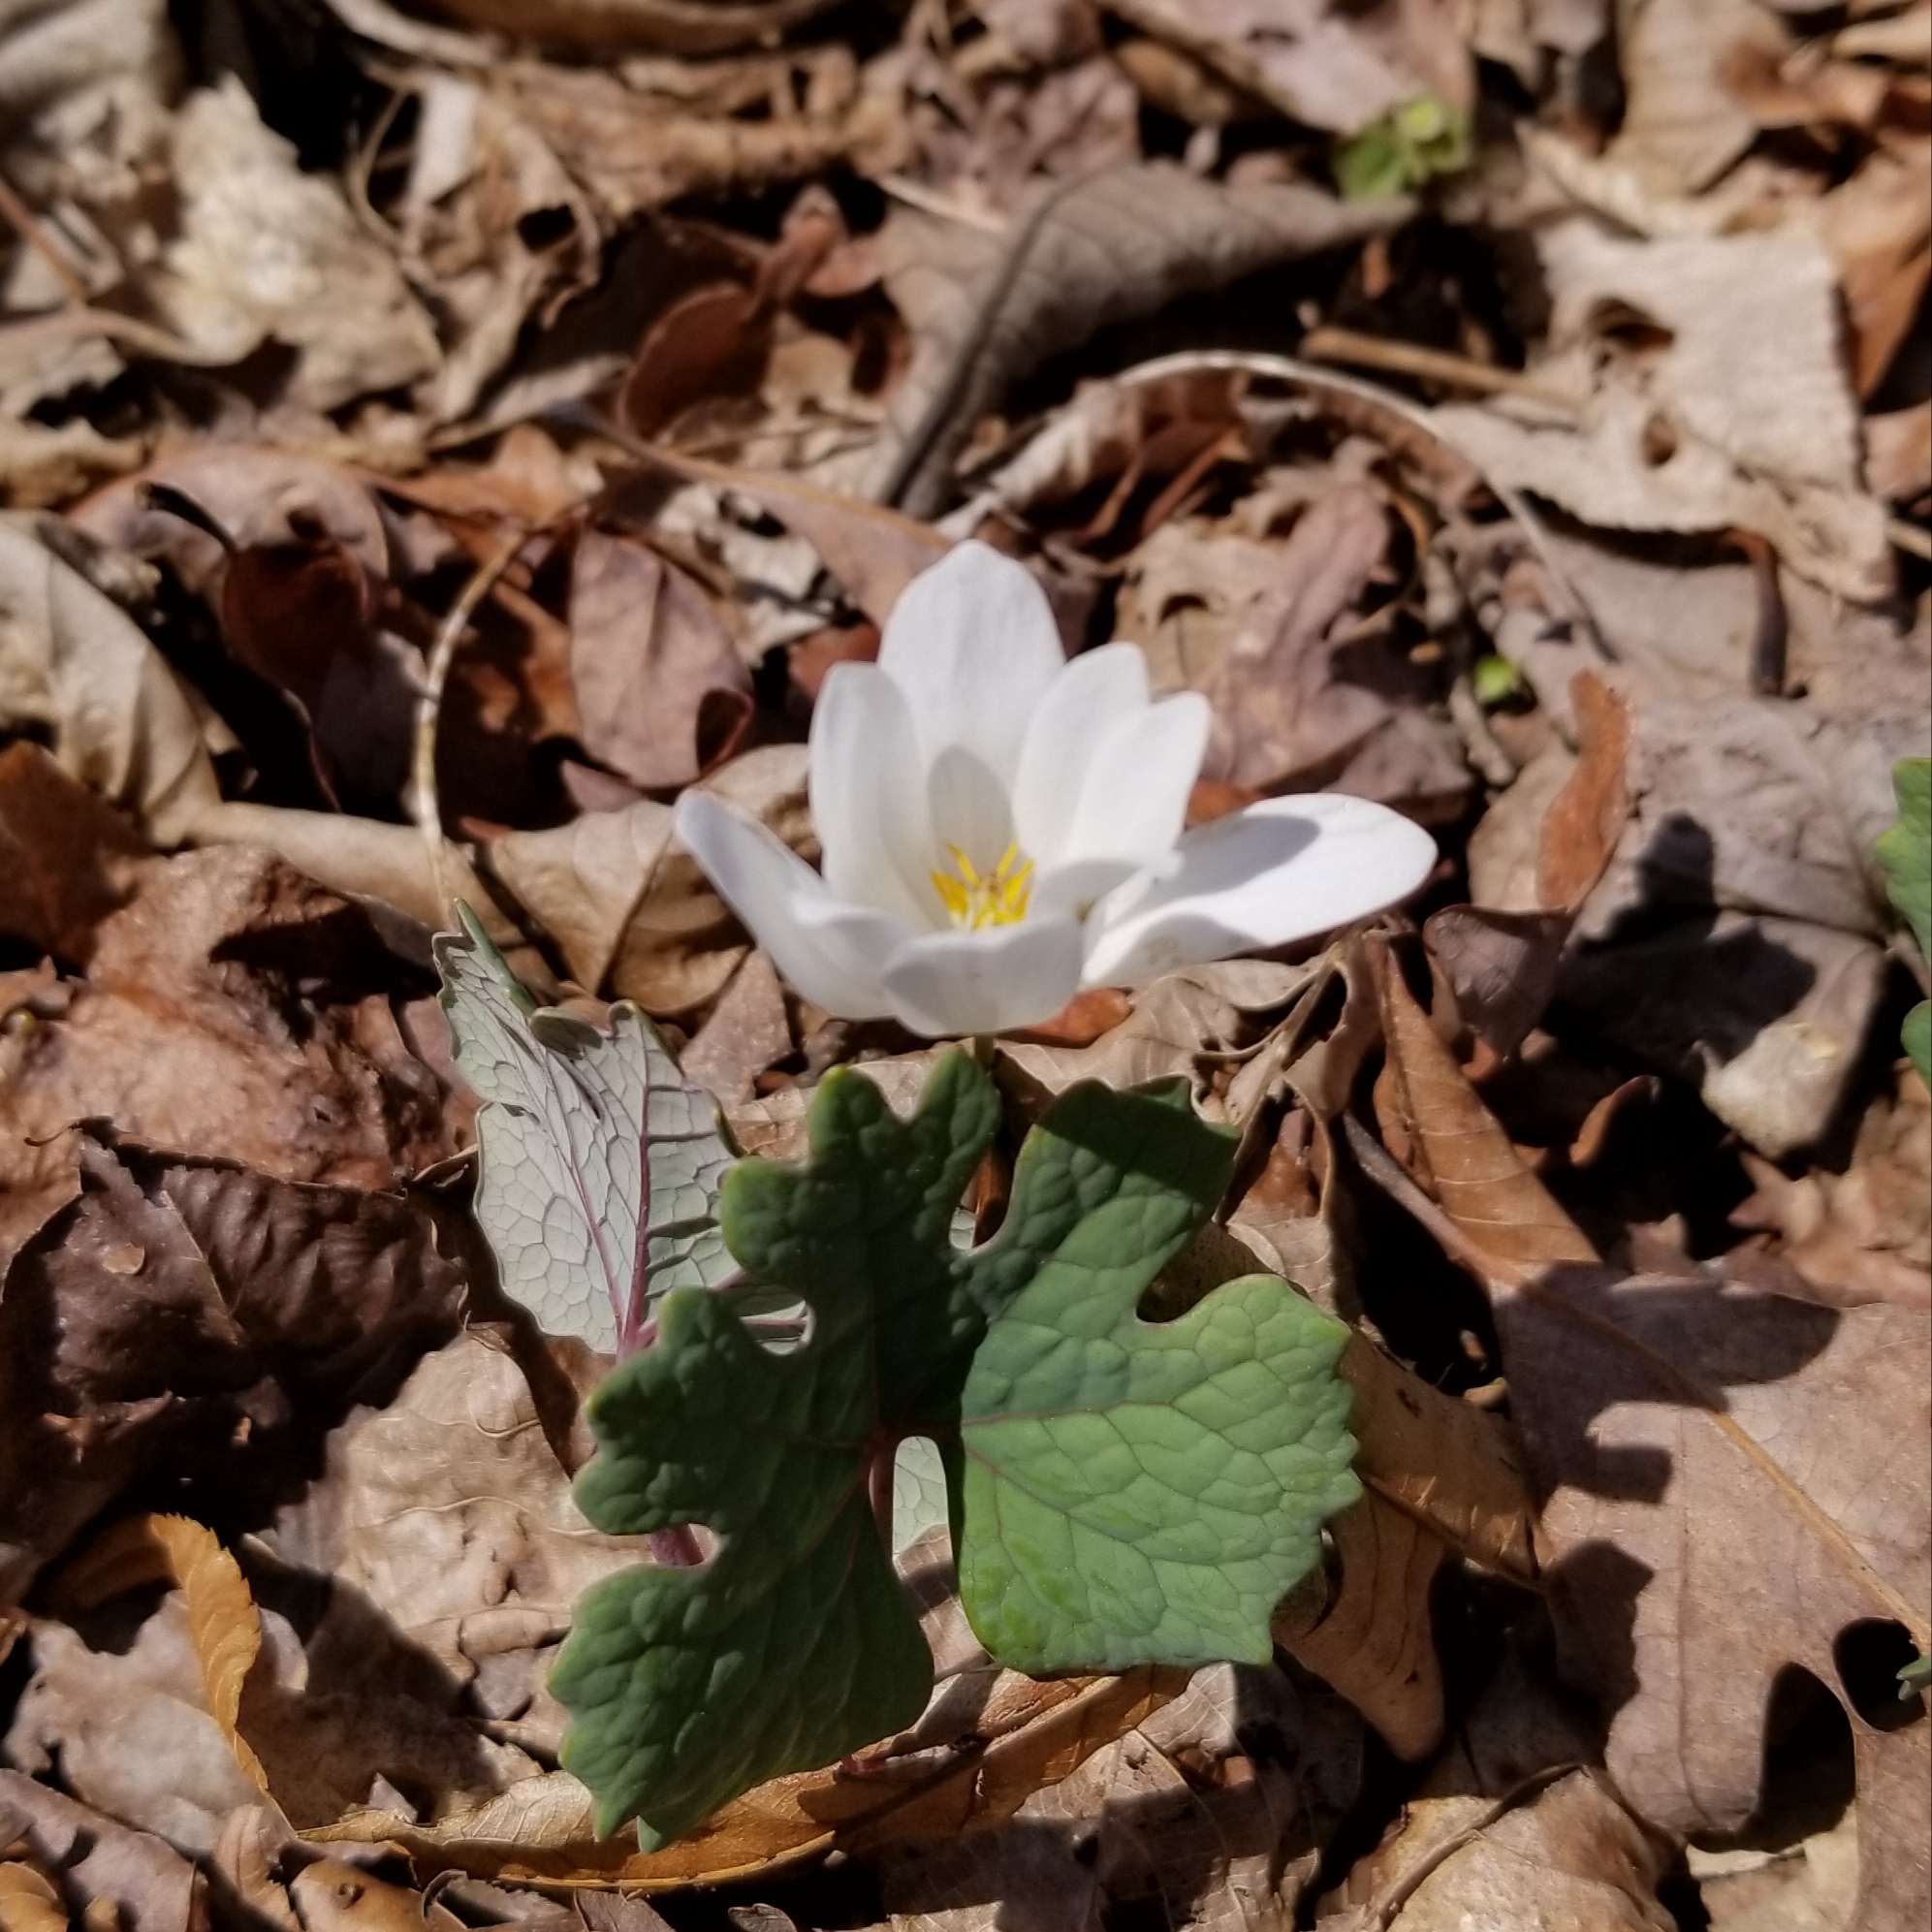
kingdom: Plantae
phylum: Tracheophyta
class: Magnoliopsida
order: Ranunculales
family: Papaveraceae
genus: Sanguinaria
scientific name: Sanguinaria canadensis
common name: Bloodroot
